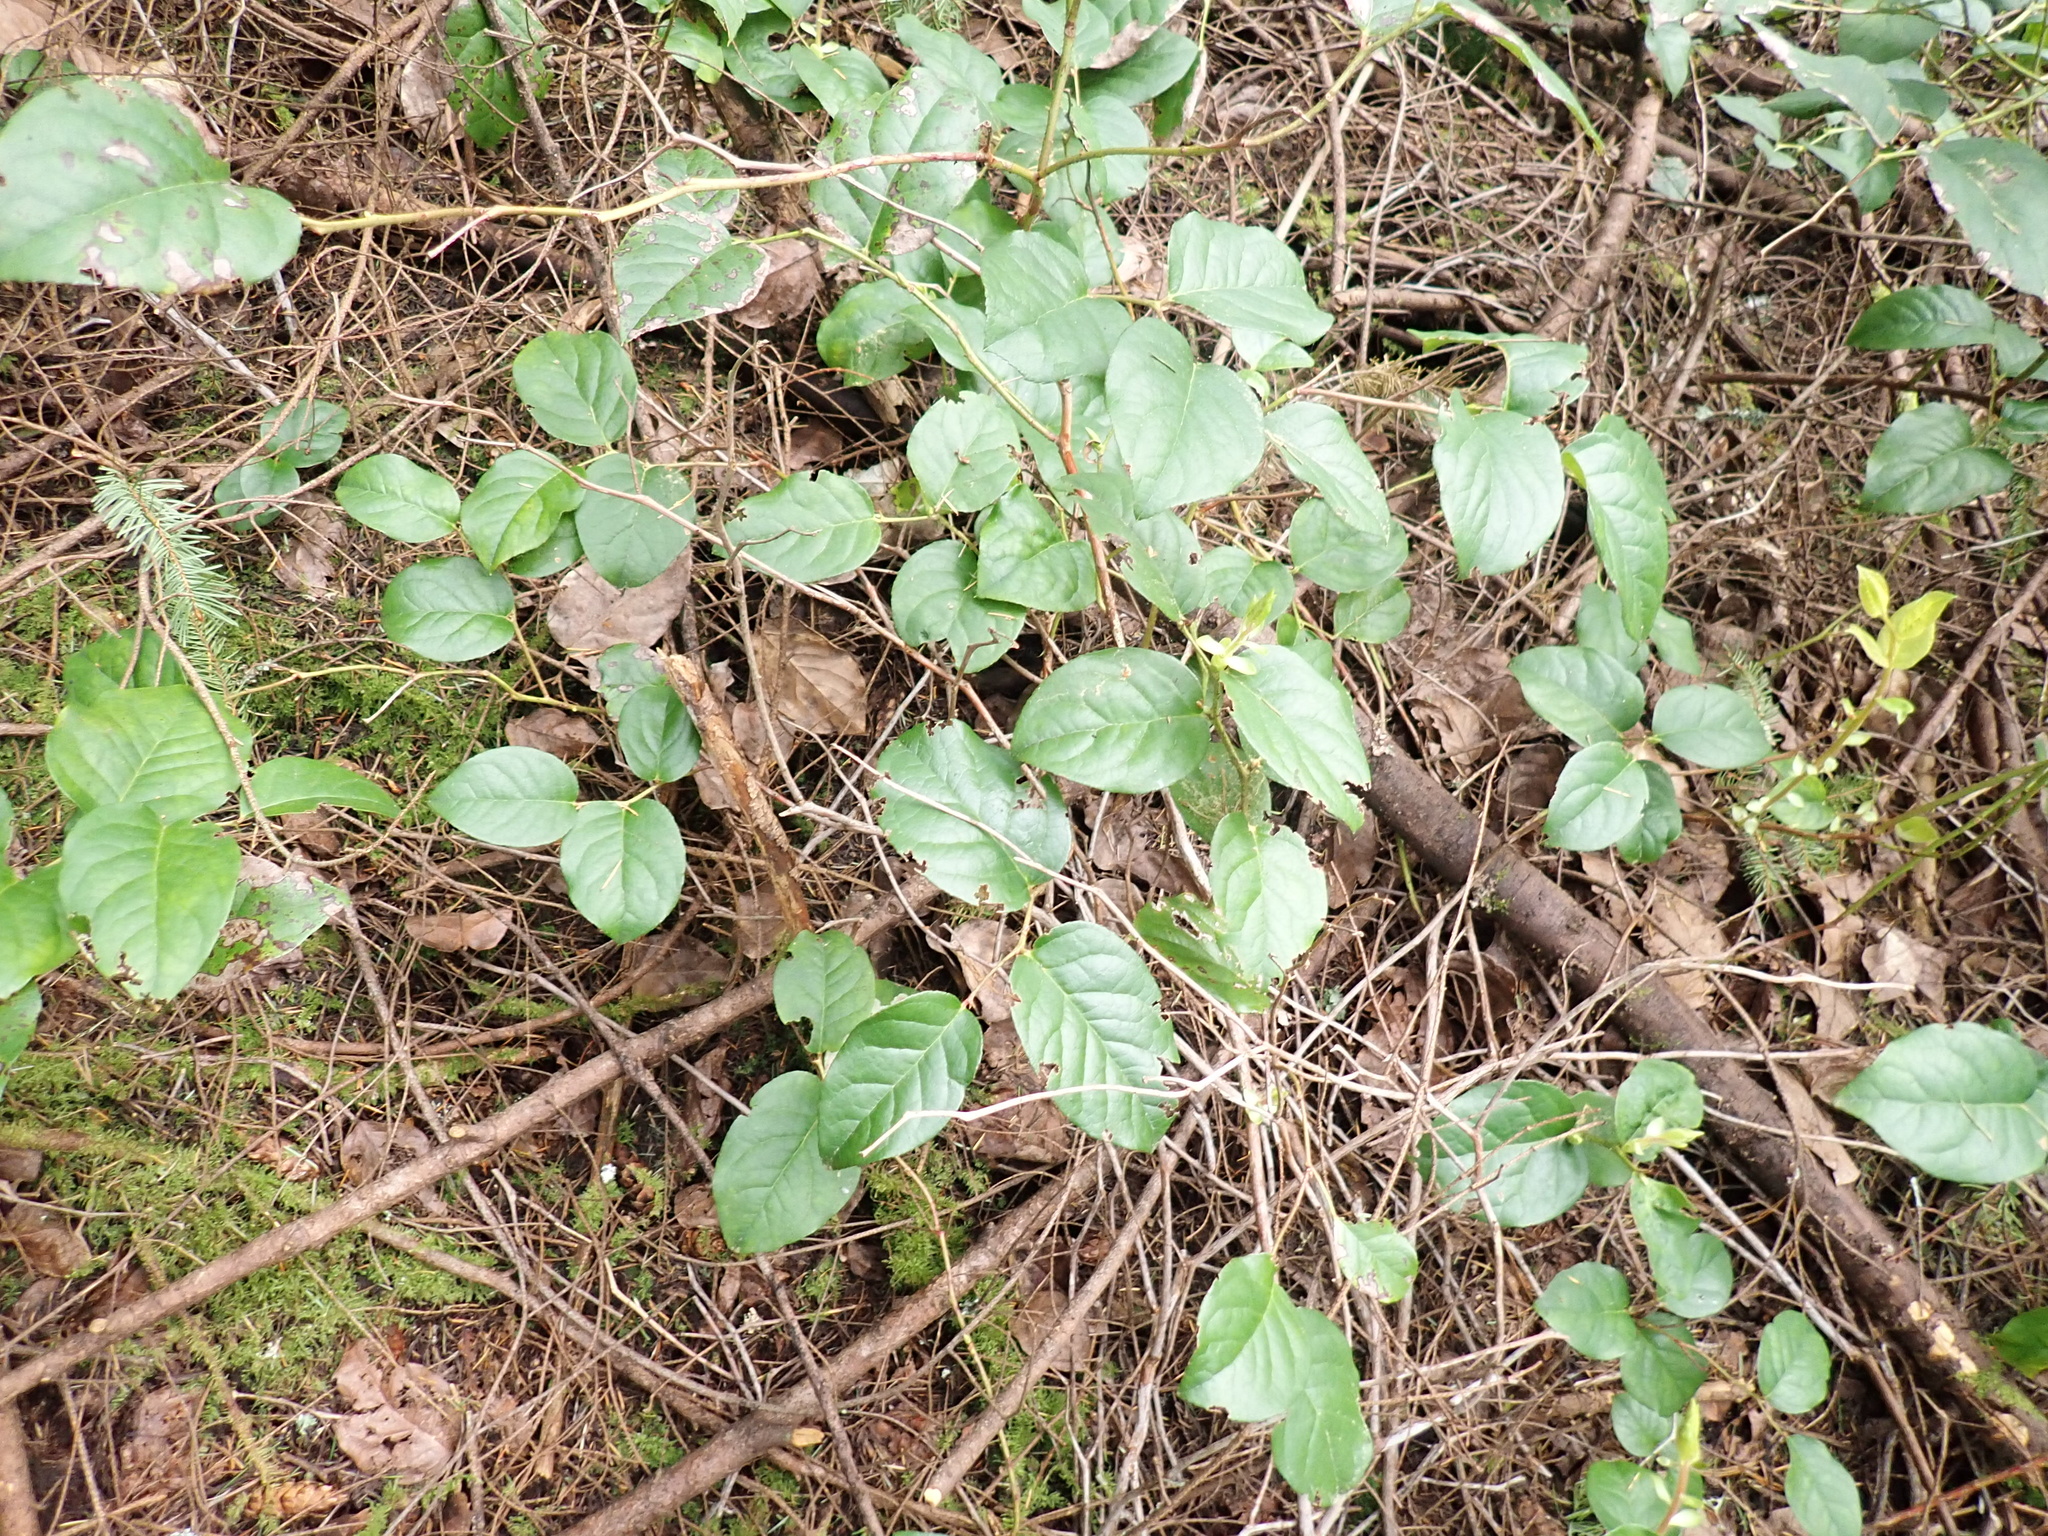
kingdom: Plantae
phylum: Tracheophyta
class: Magnoliopsida
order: Ericales
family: Ericaceae
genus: Gaultheria
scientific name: Gaultheria shallon
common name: Shallon
